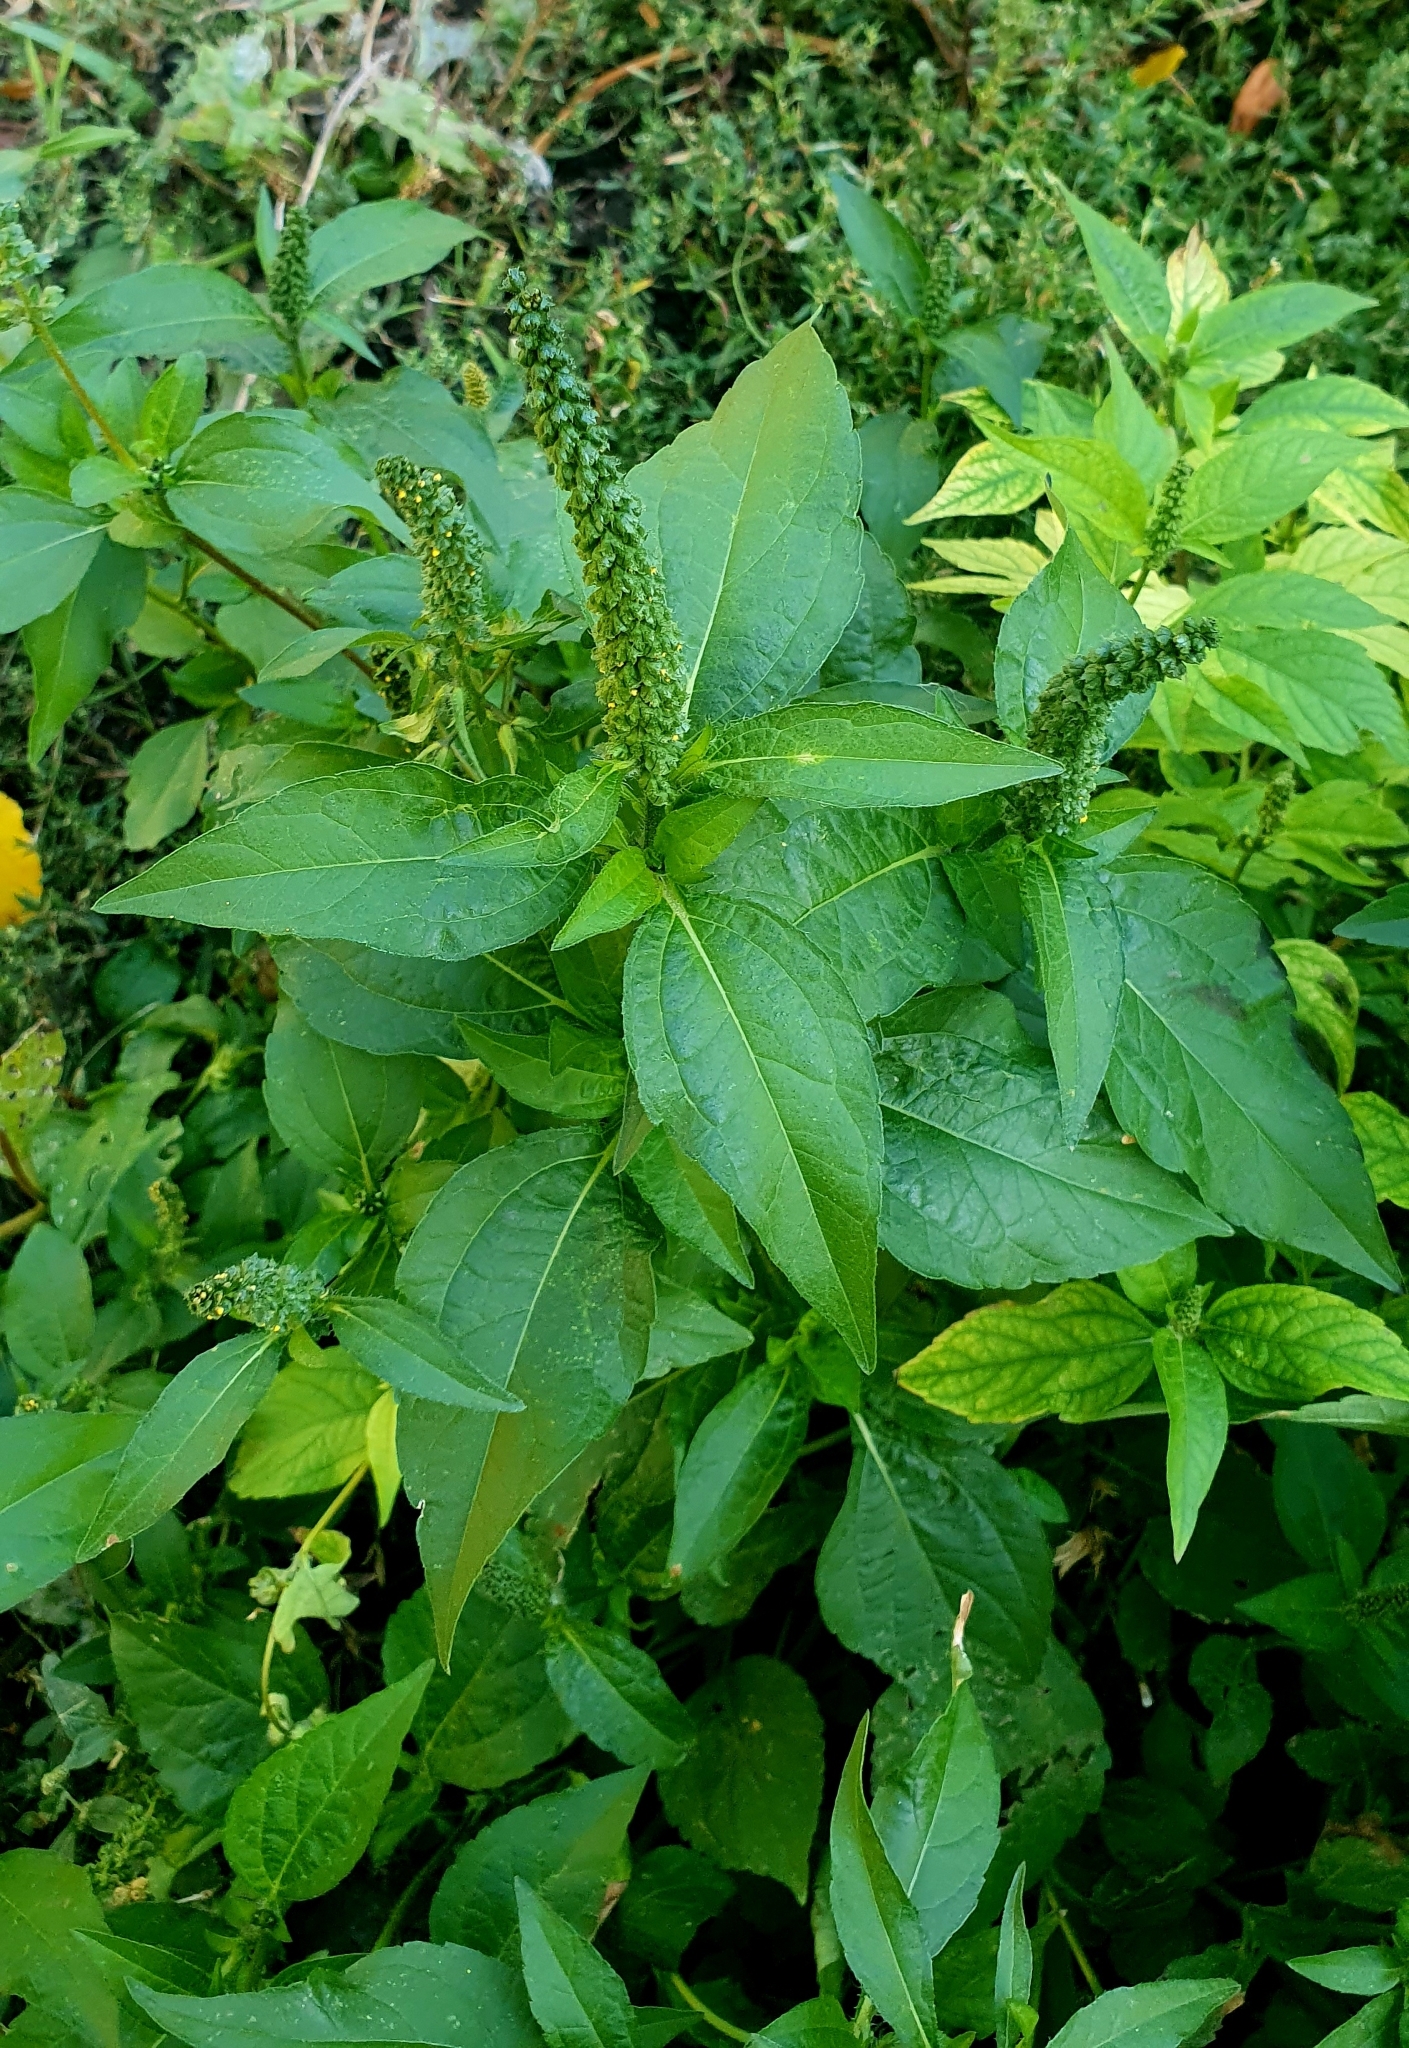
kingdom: Plantae
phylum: Tracheophyta
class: Magnoliopsida
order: Asterales
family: Asteraceae
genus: Ambrosia
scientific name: Ambrosia trifida
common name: Giant ragweed
